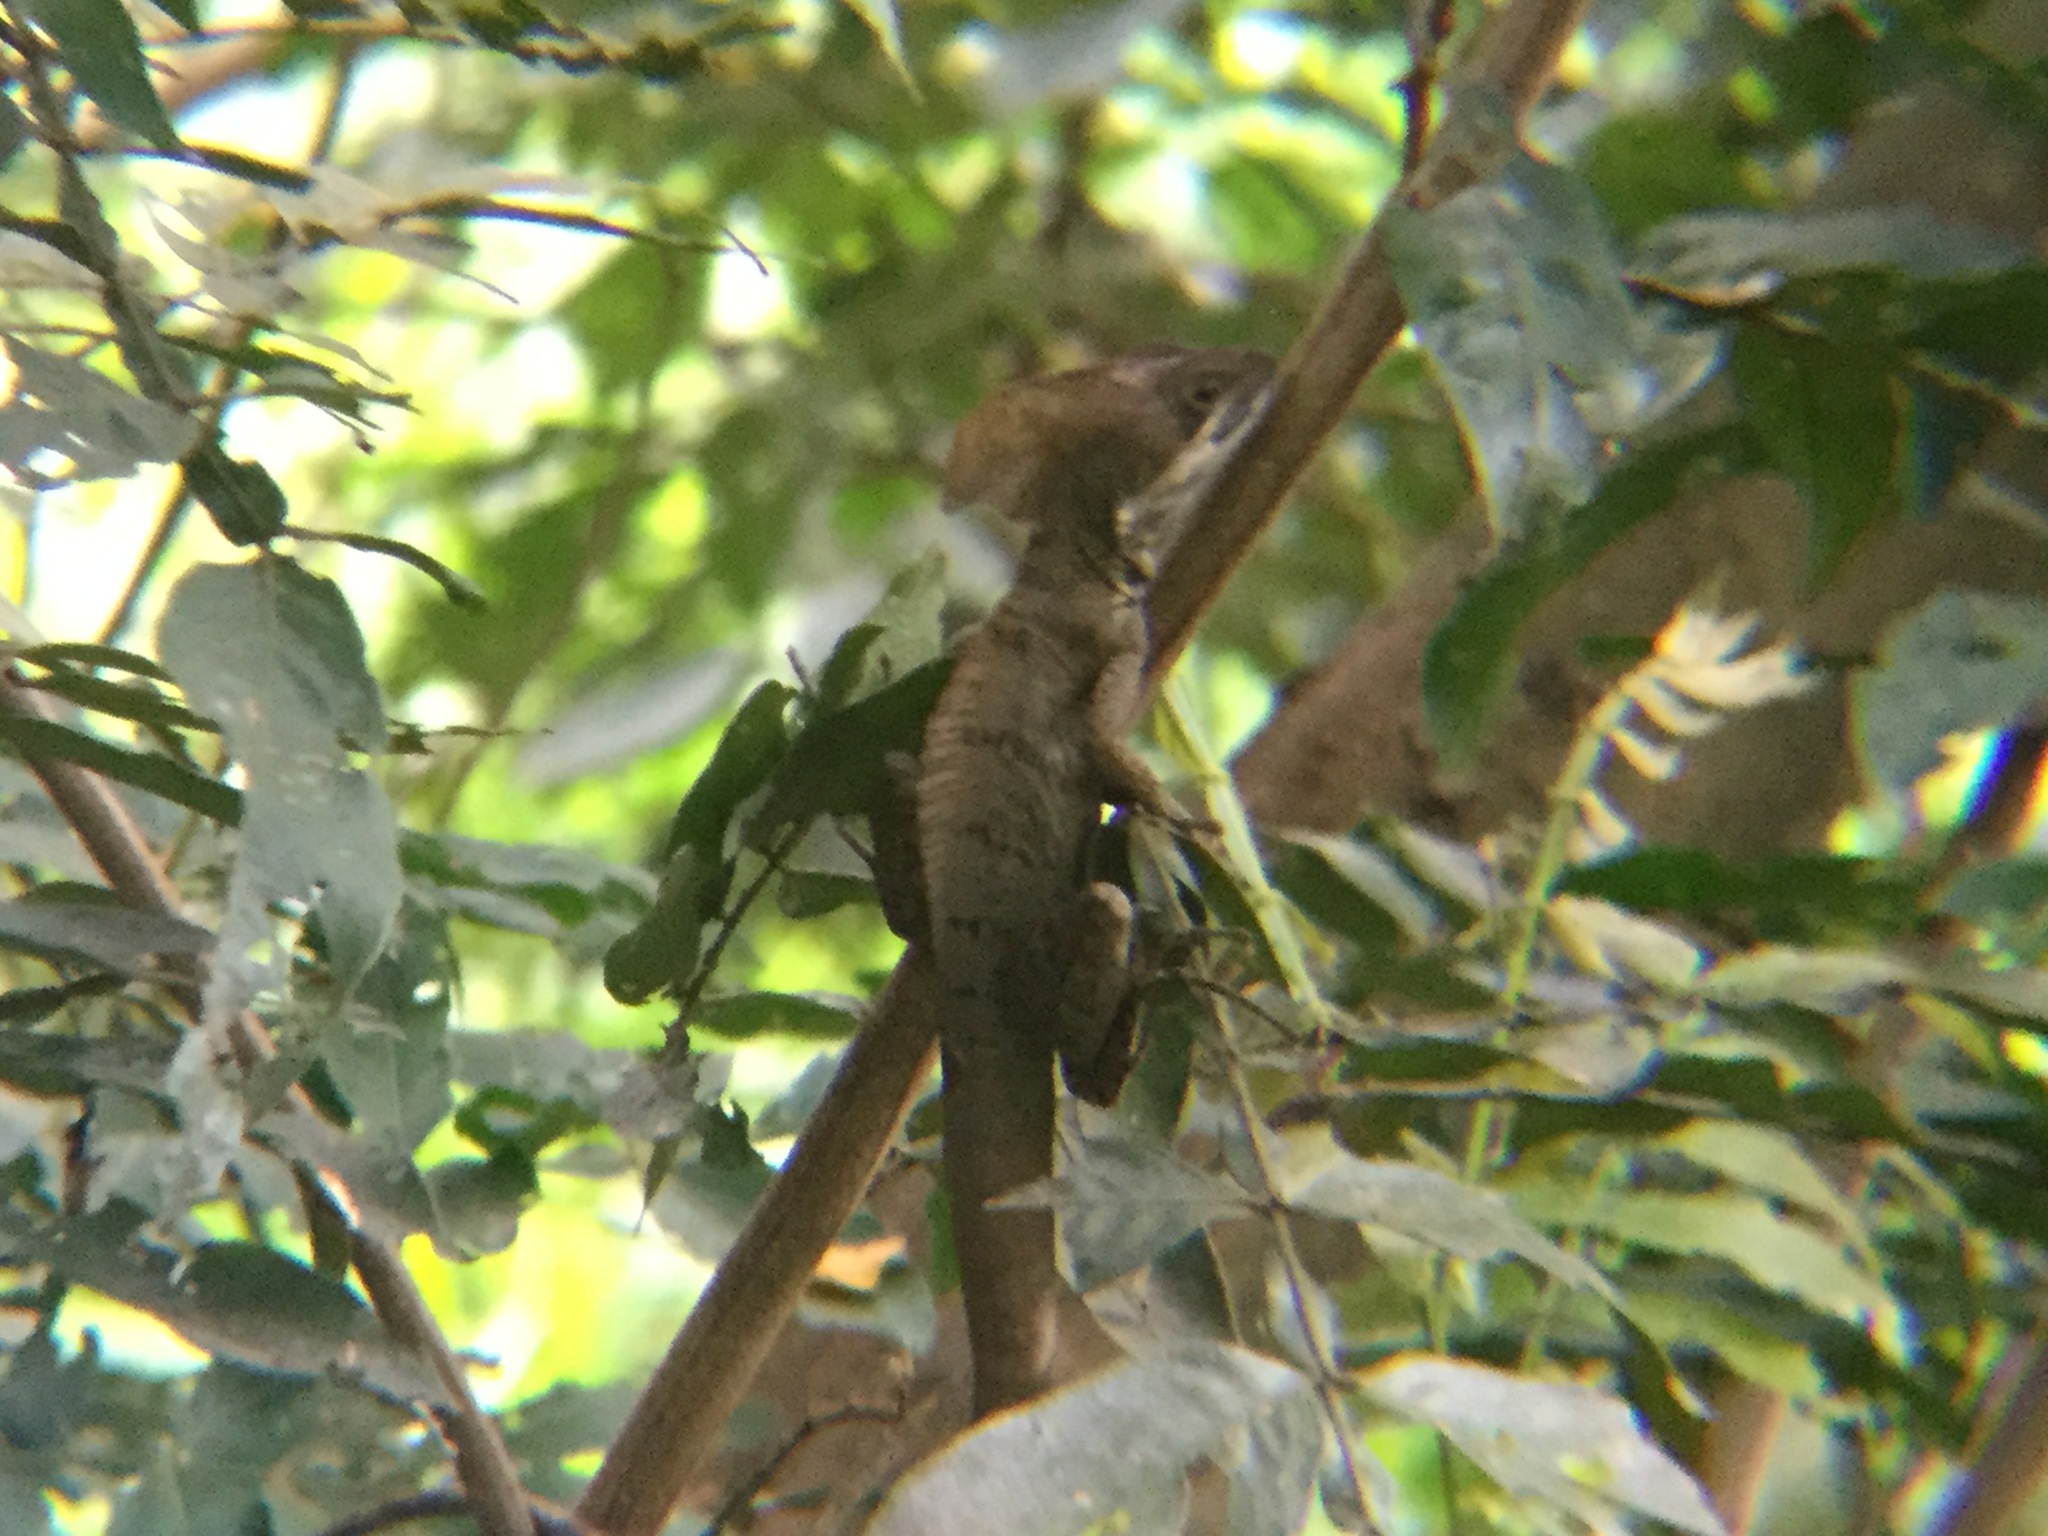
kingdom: Animalia
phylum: Chordata
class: Squamata
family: Corytophanidae
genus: Basiliscus
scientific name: Basiliscus vittatus
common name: Brown basilisk
